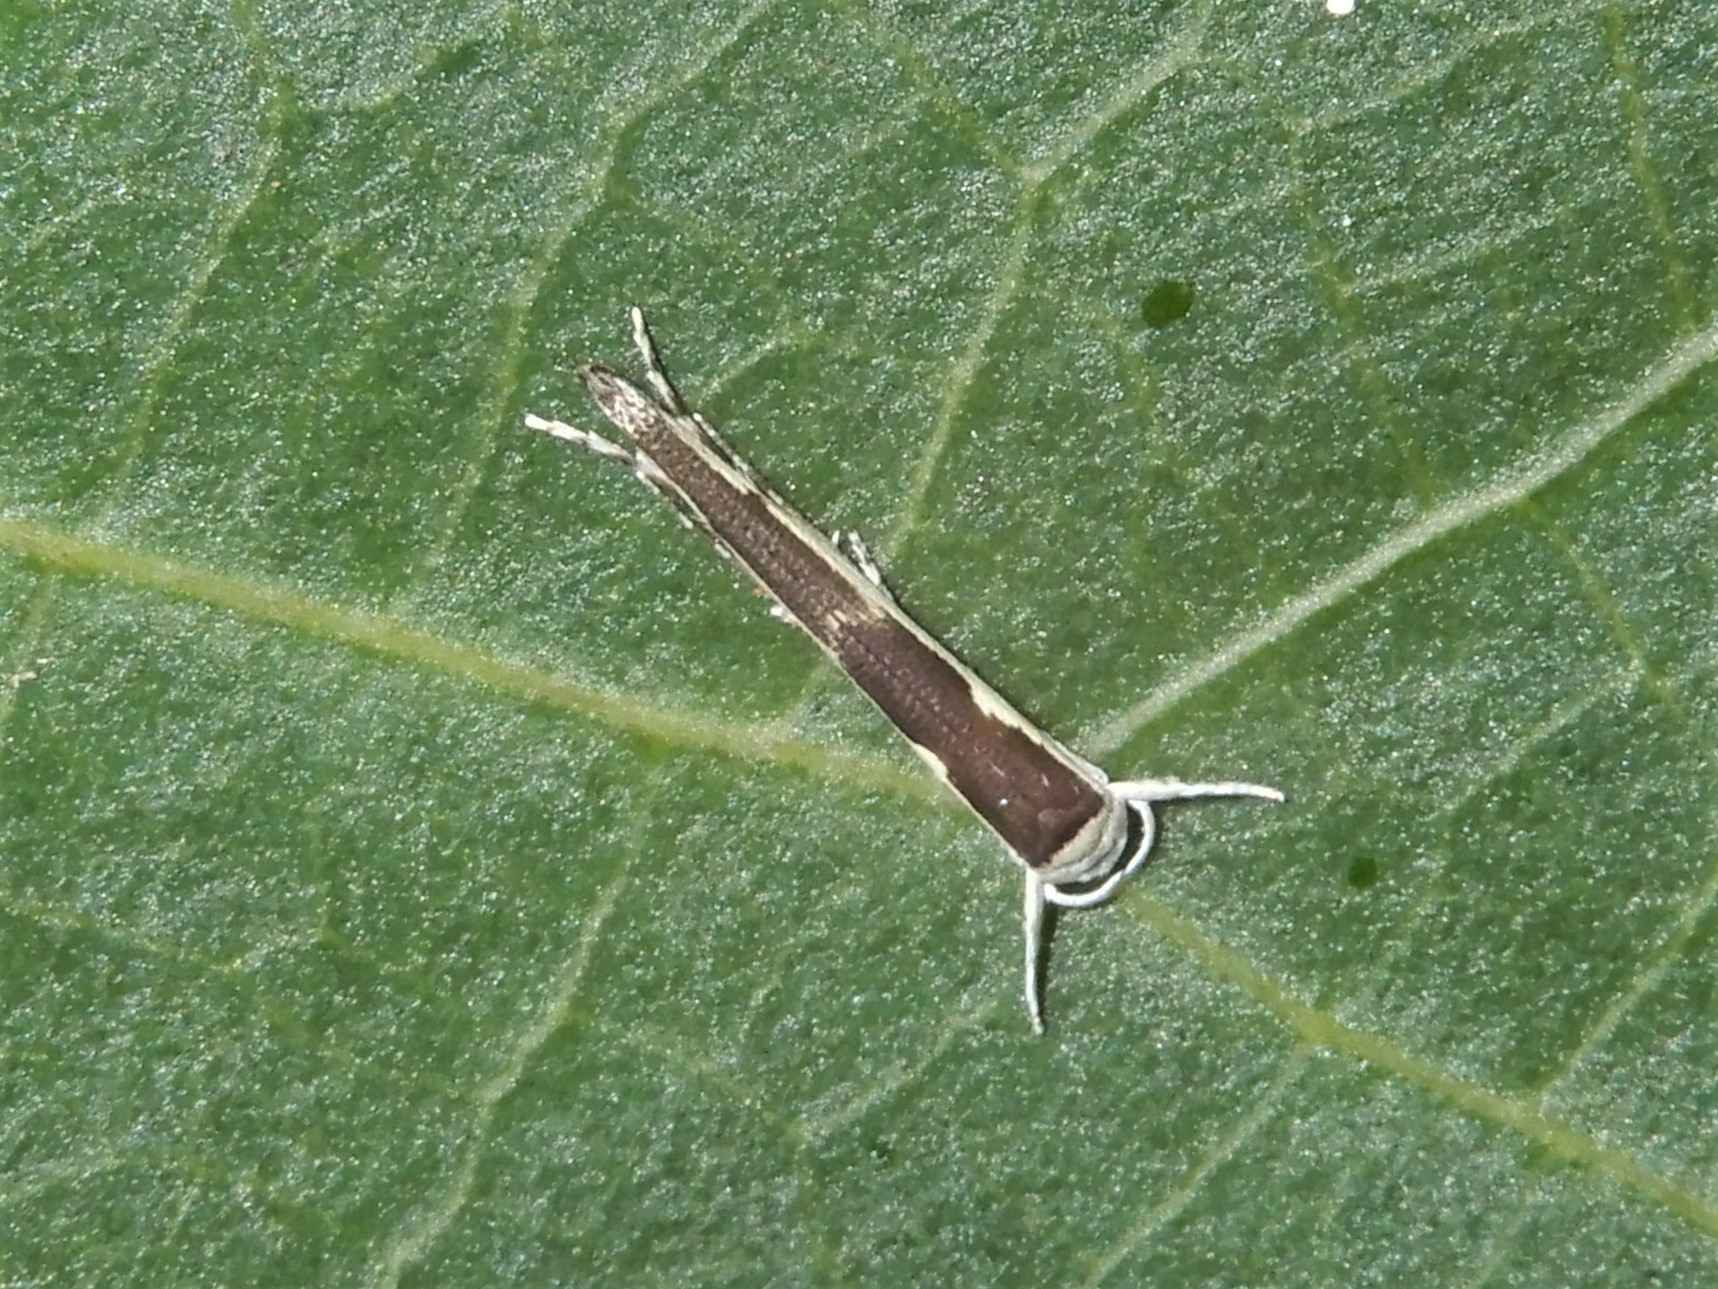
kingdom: Animalia
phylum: Arthropoda
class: Insecta
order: Lepidoptera
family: Roeslerstammiidae
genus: Vanicela
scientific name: Vanicela disjunctella
